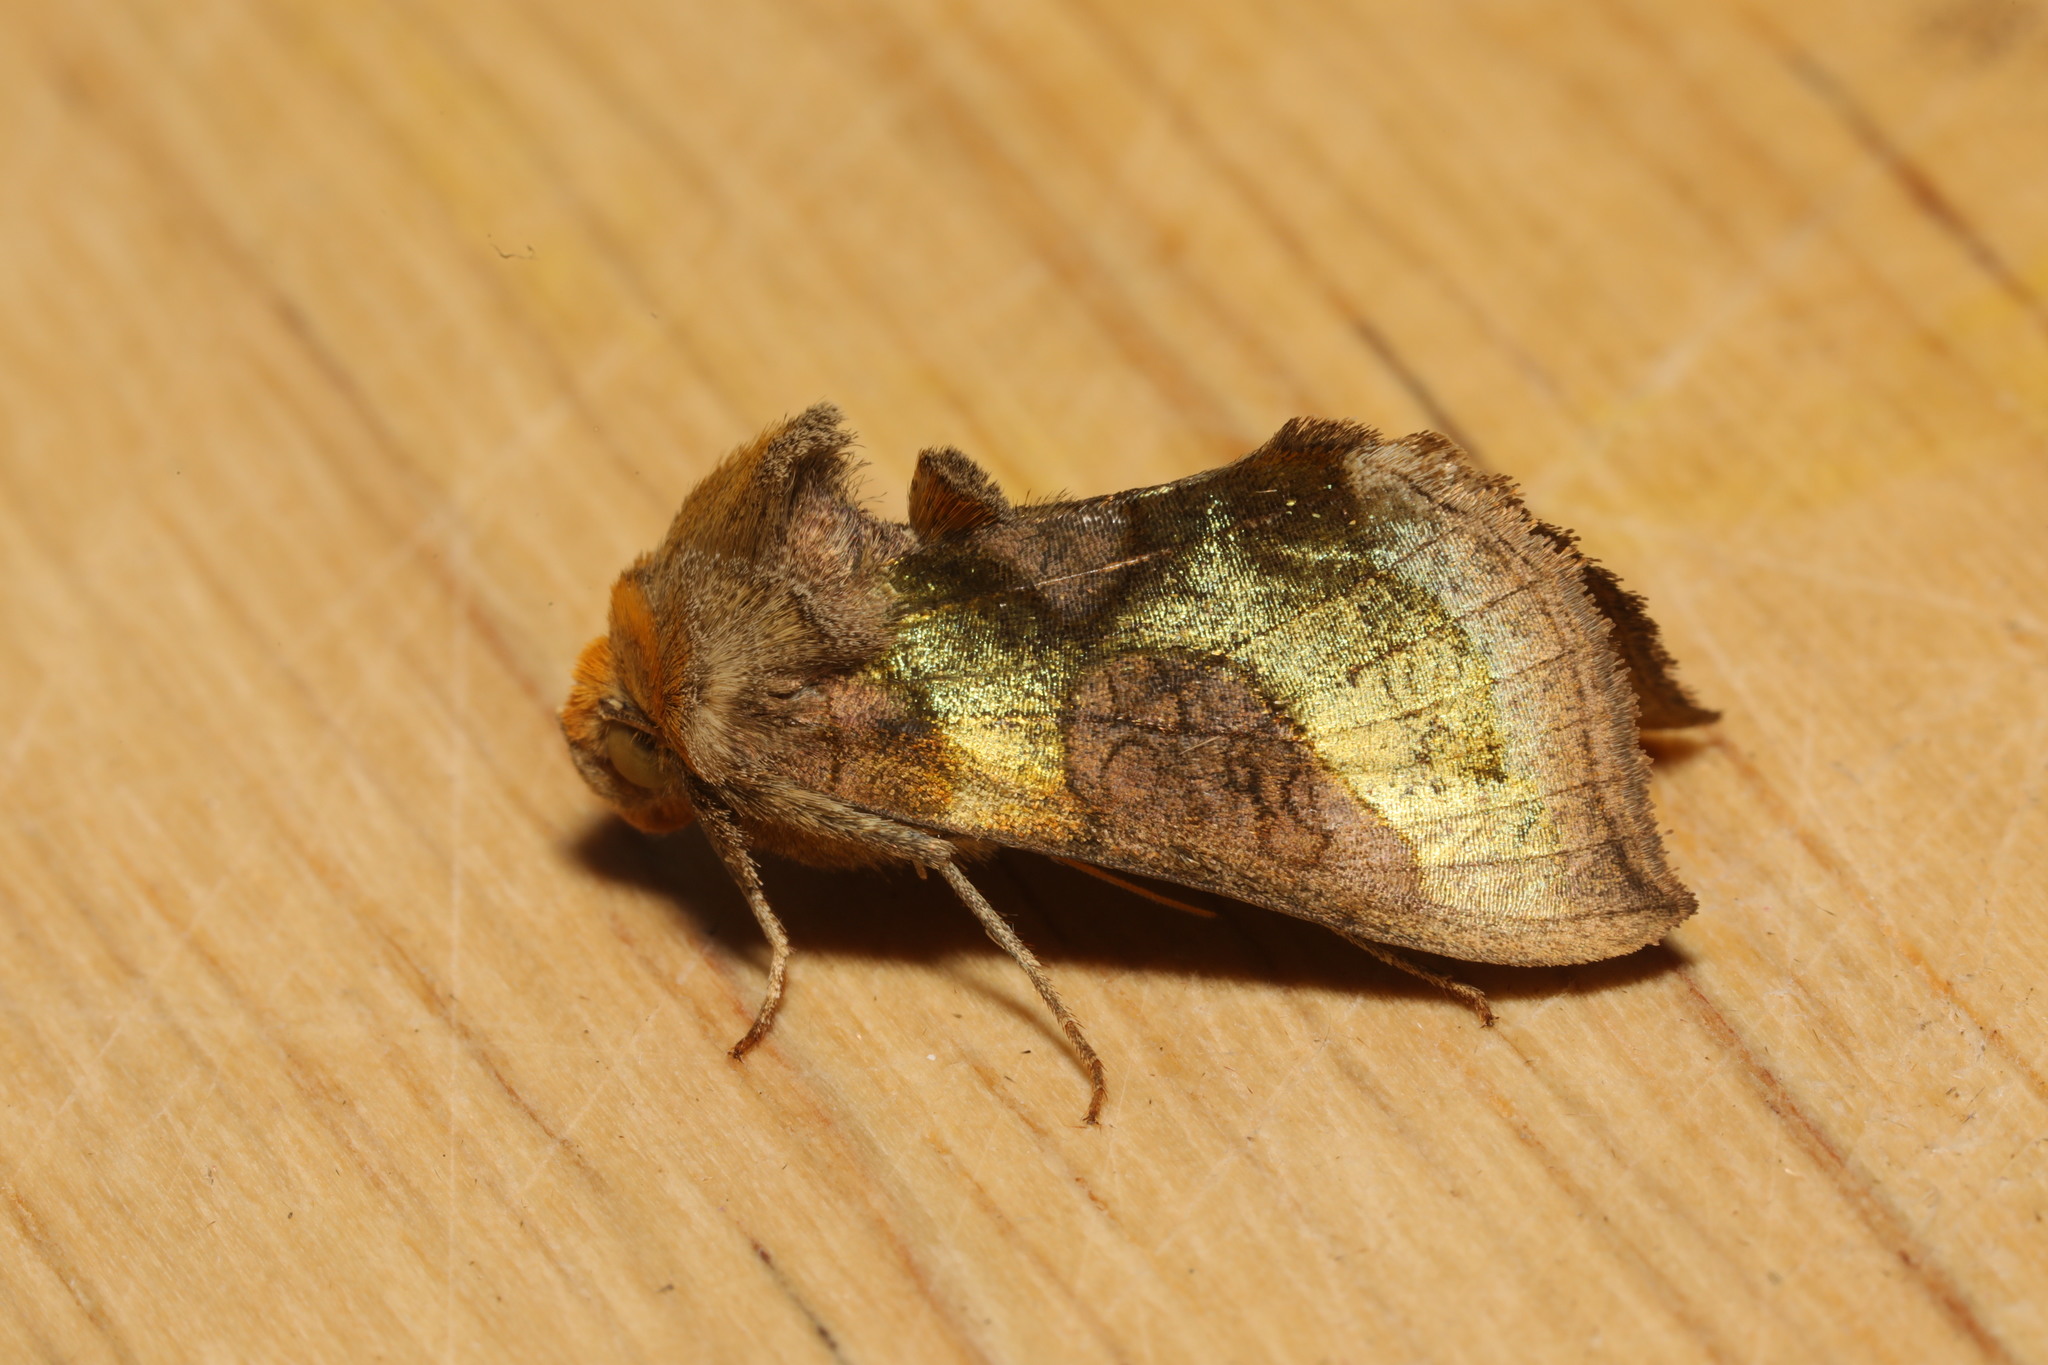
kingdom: Animalia
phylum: Arthropoda
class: Insecta
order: Lepidoptera
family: Noctuidae
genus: Diachrysia
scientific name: Diachrysia chrysitis
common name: Burnished brass
